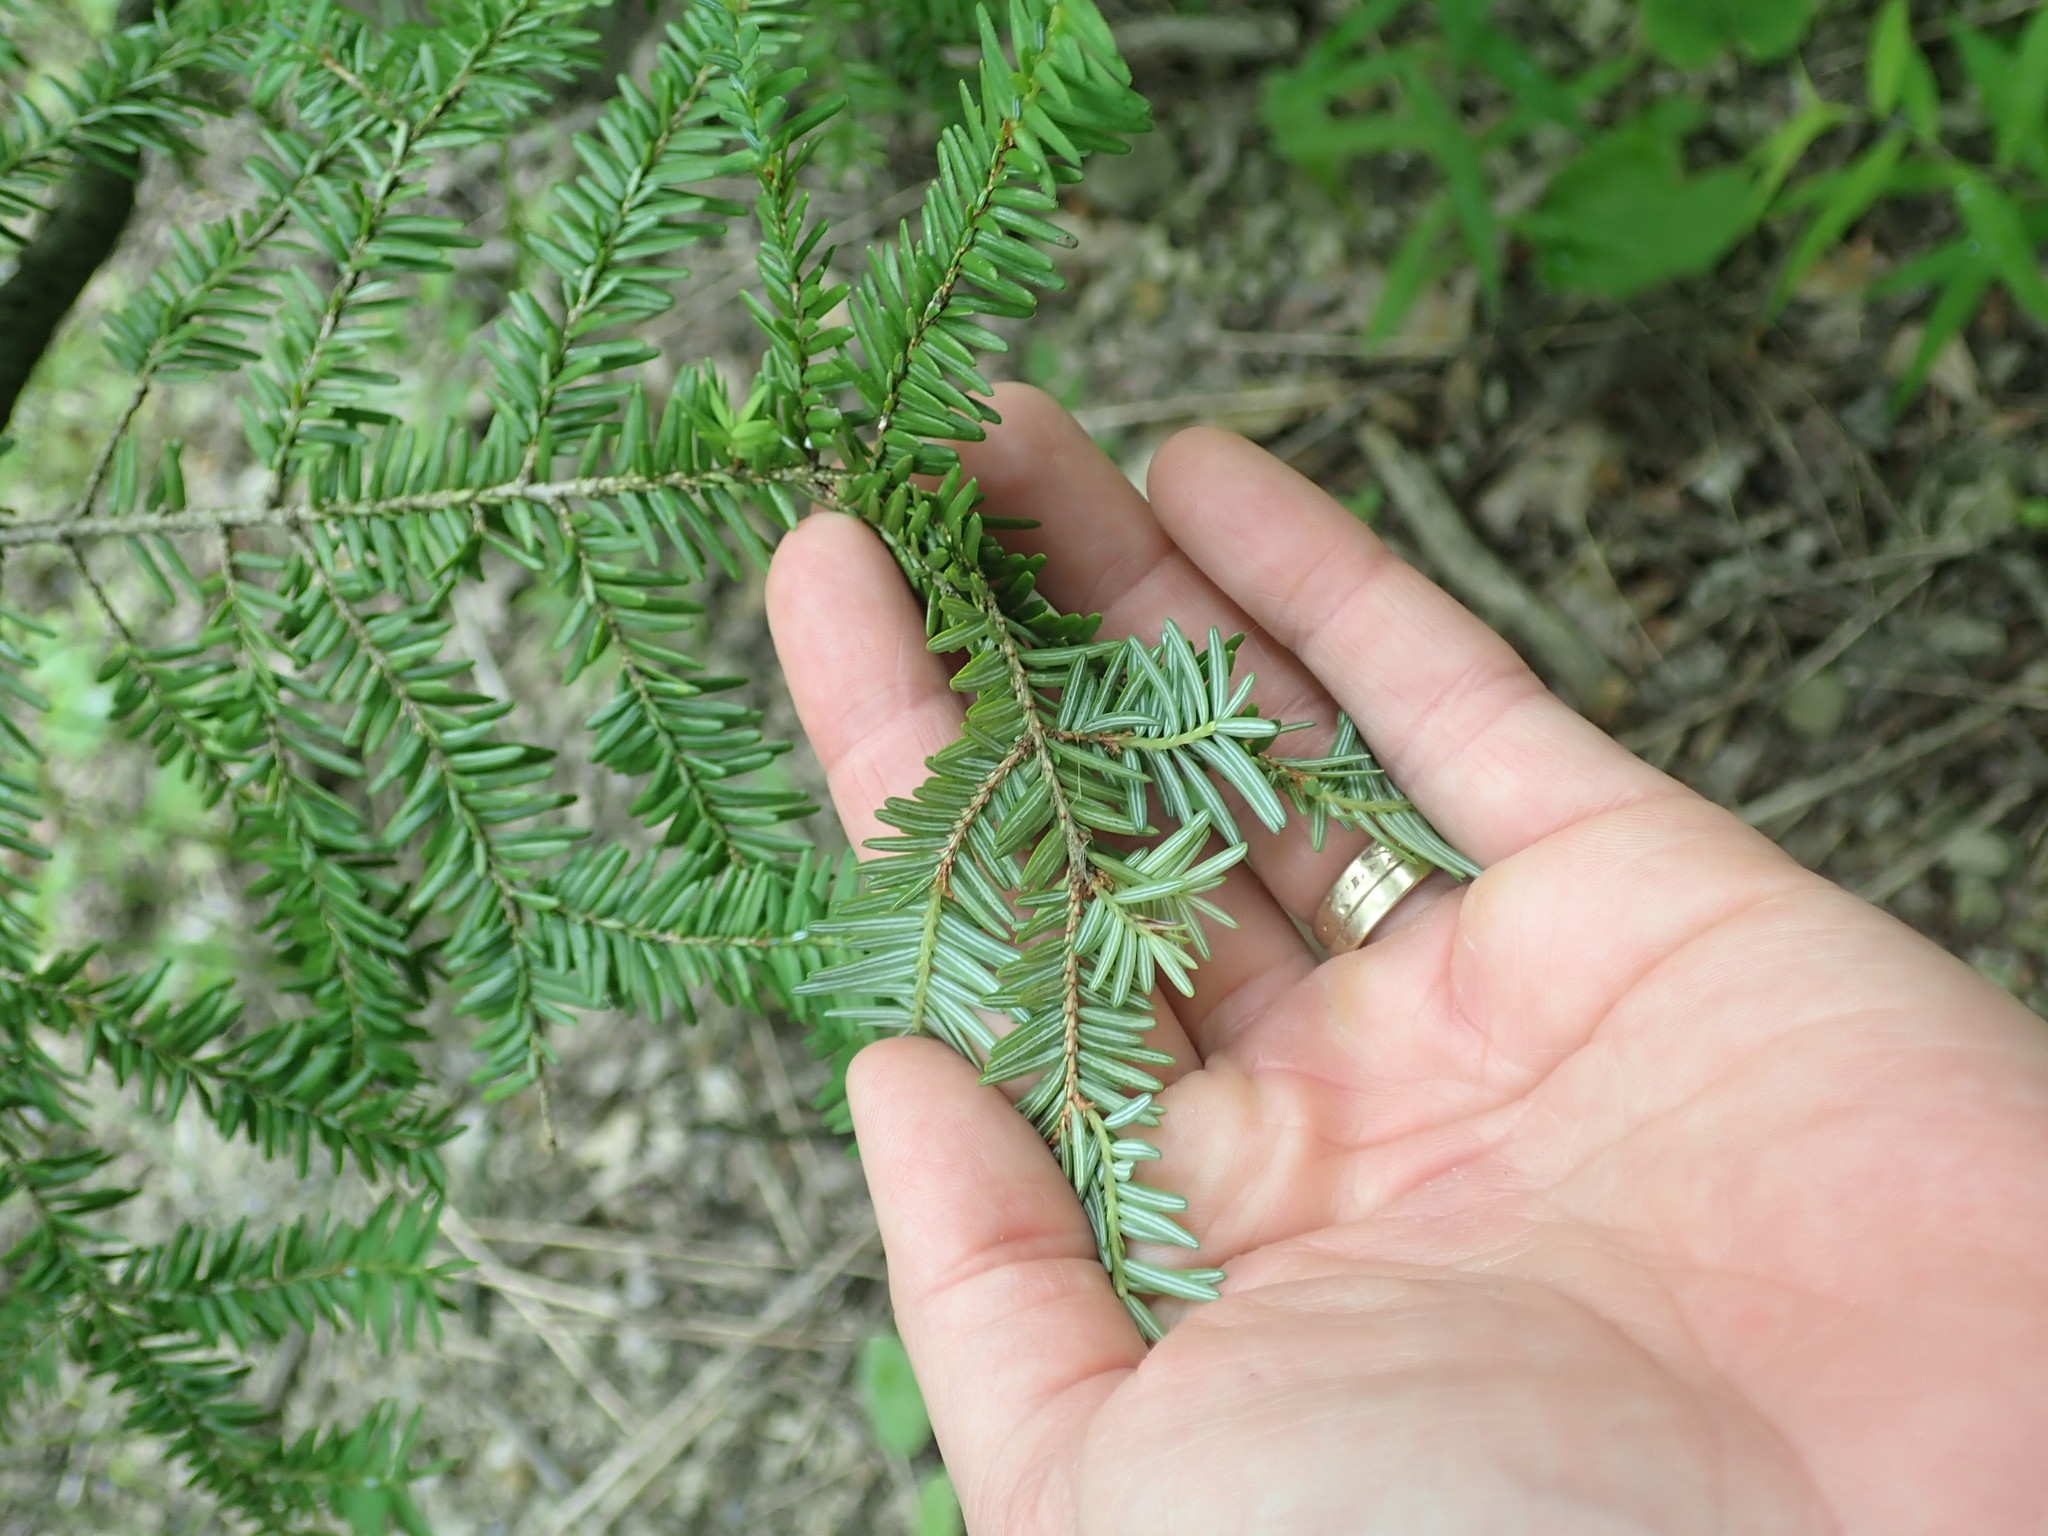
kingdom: Plantae
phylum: Tracheophyta
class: Pinopsida
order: Pinales
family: Pinaceae
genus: Tsuga
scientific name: Tsuga canadensis
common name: Eastern hemlock
